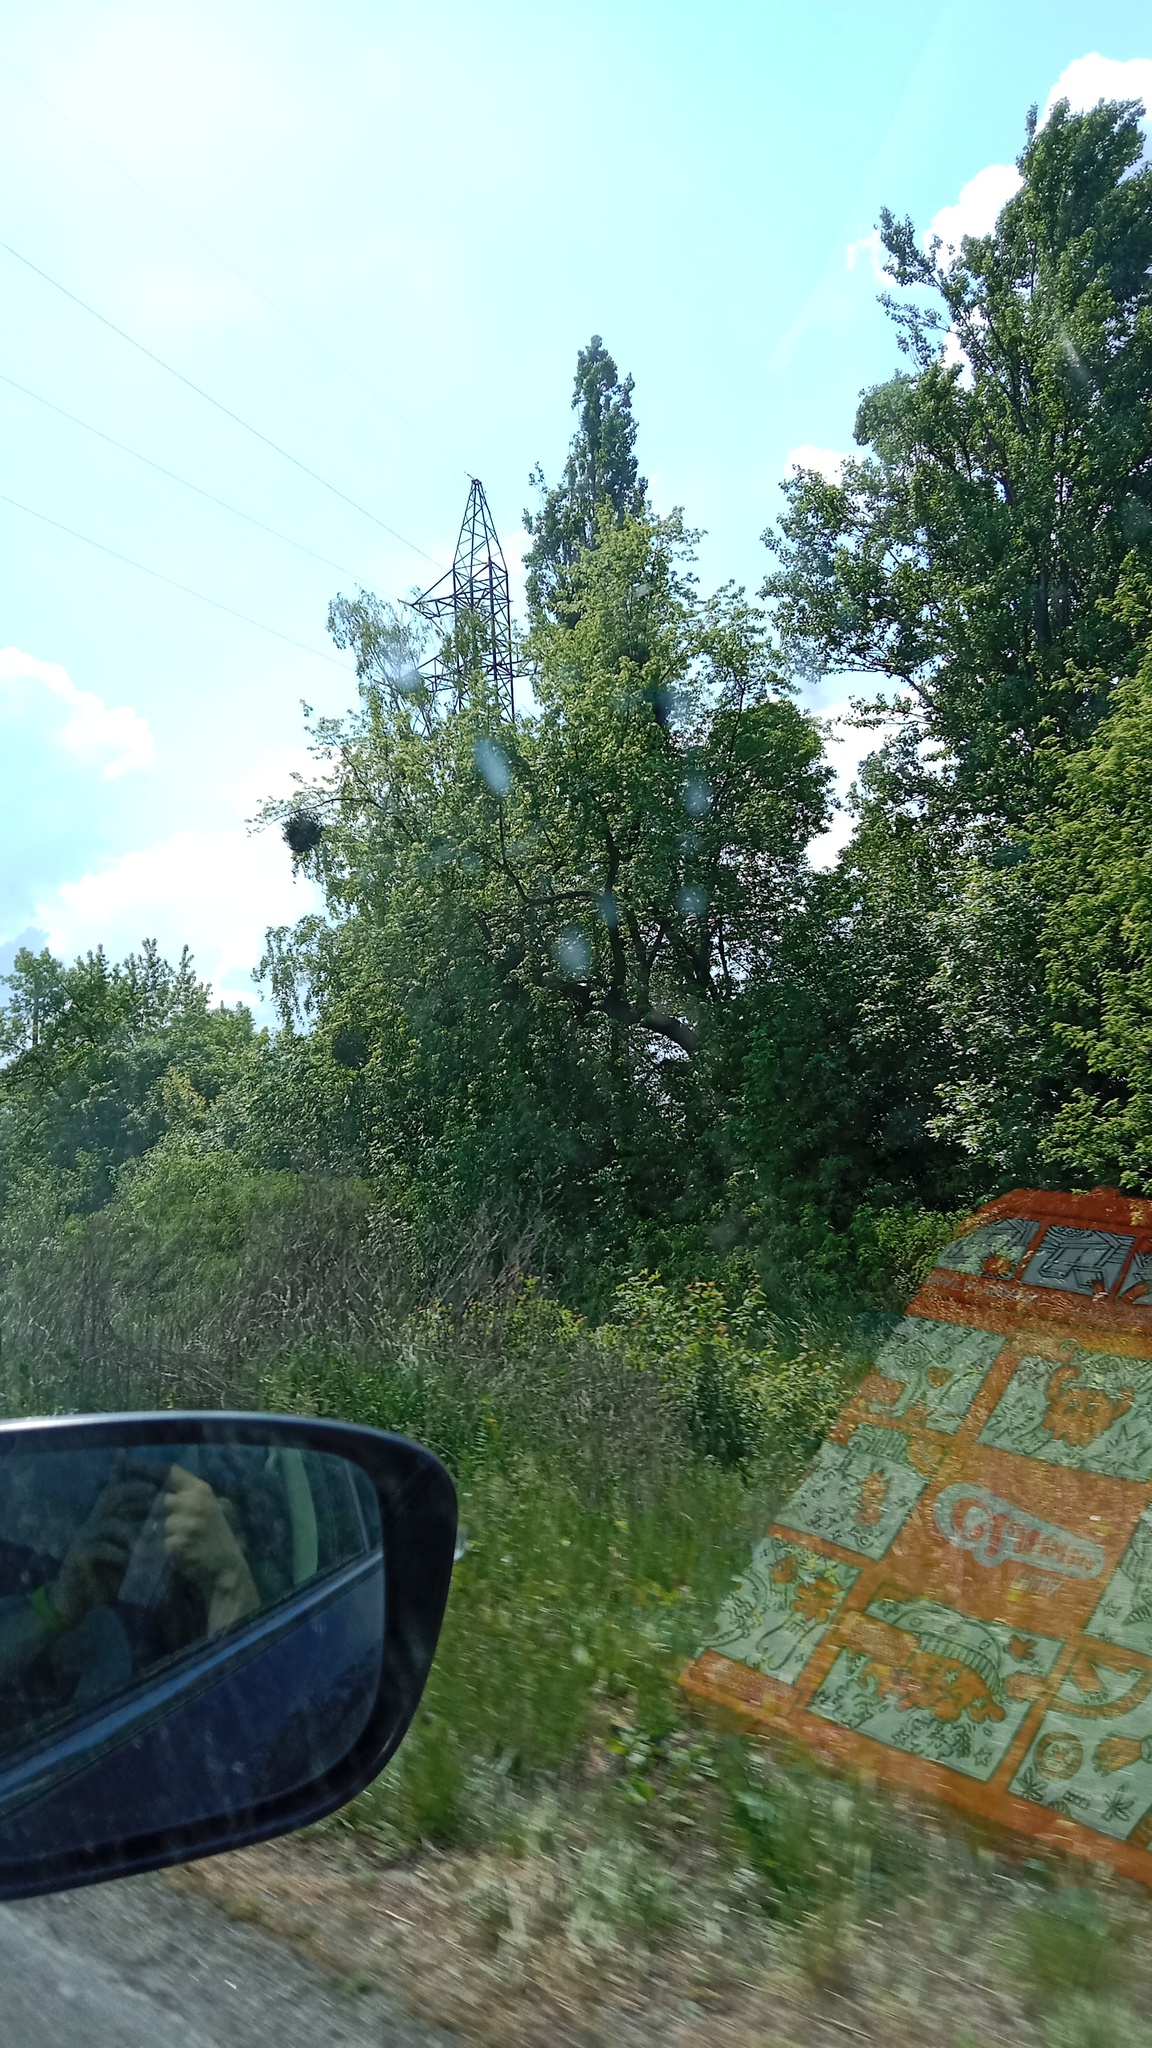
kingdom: Plantae
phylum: Tracheophyta
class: Magnoliopsida
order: Santalales
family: Viscaceae
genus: Viscum
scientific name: Viscum album
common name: Mistletoe
